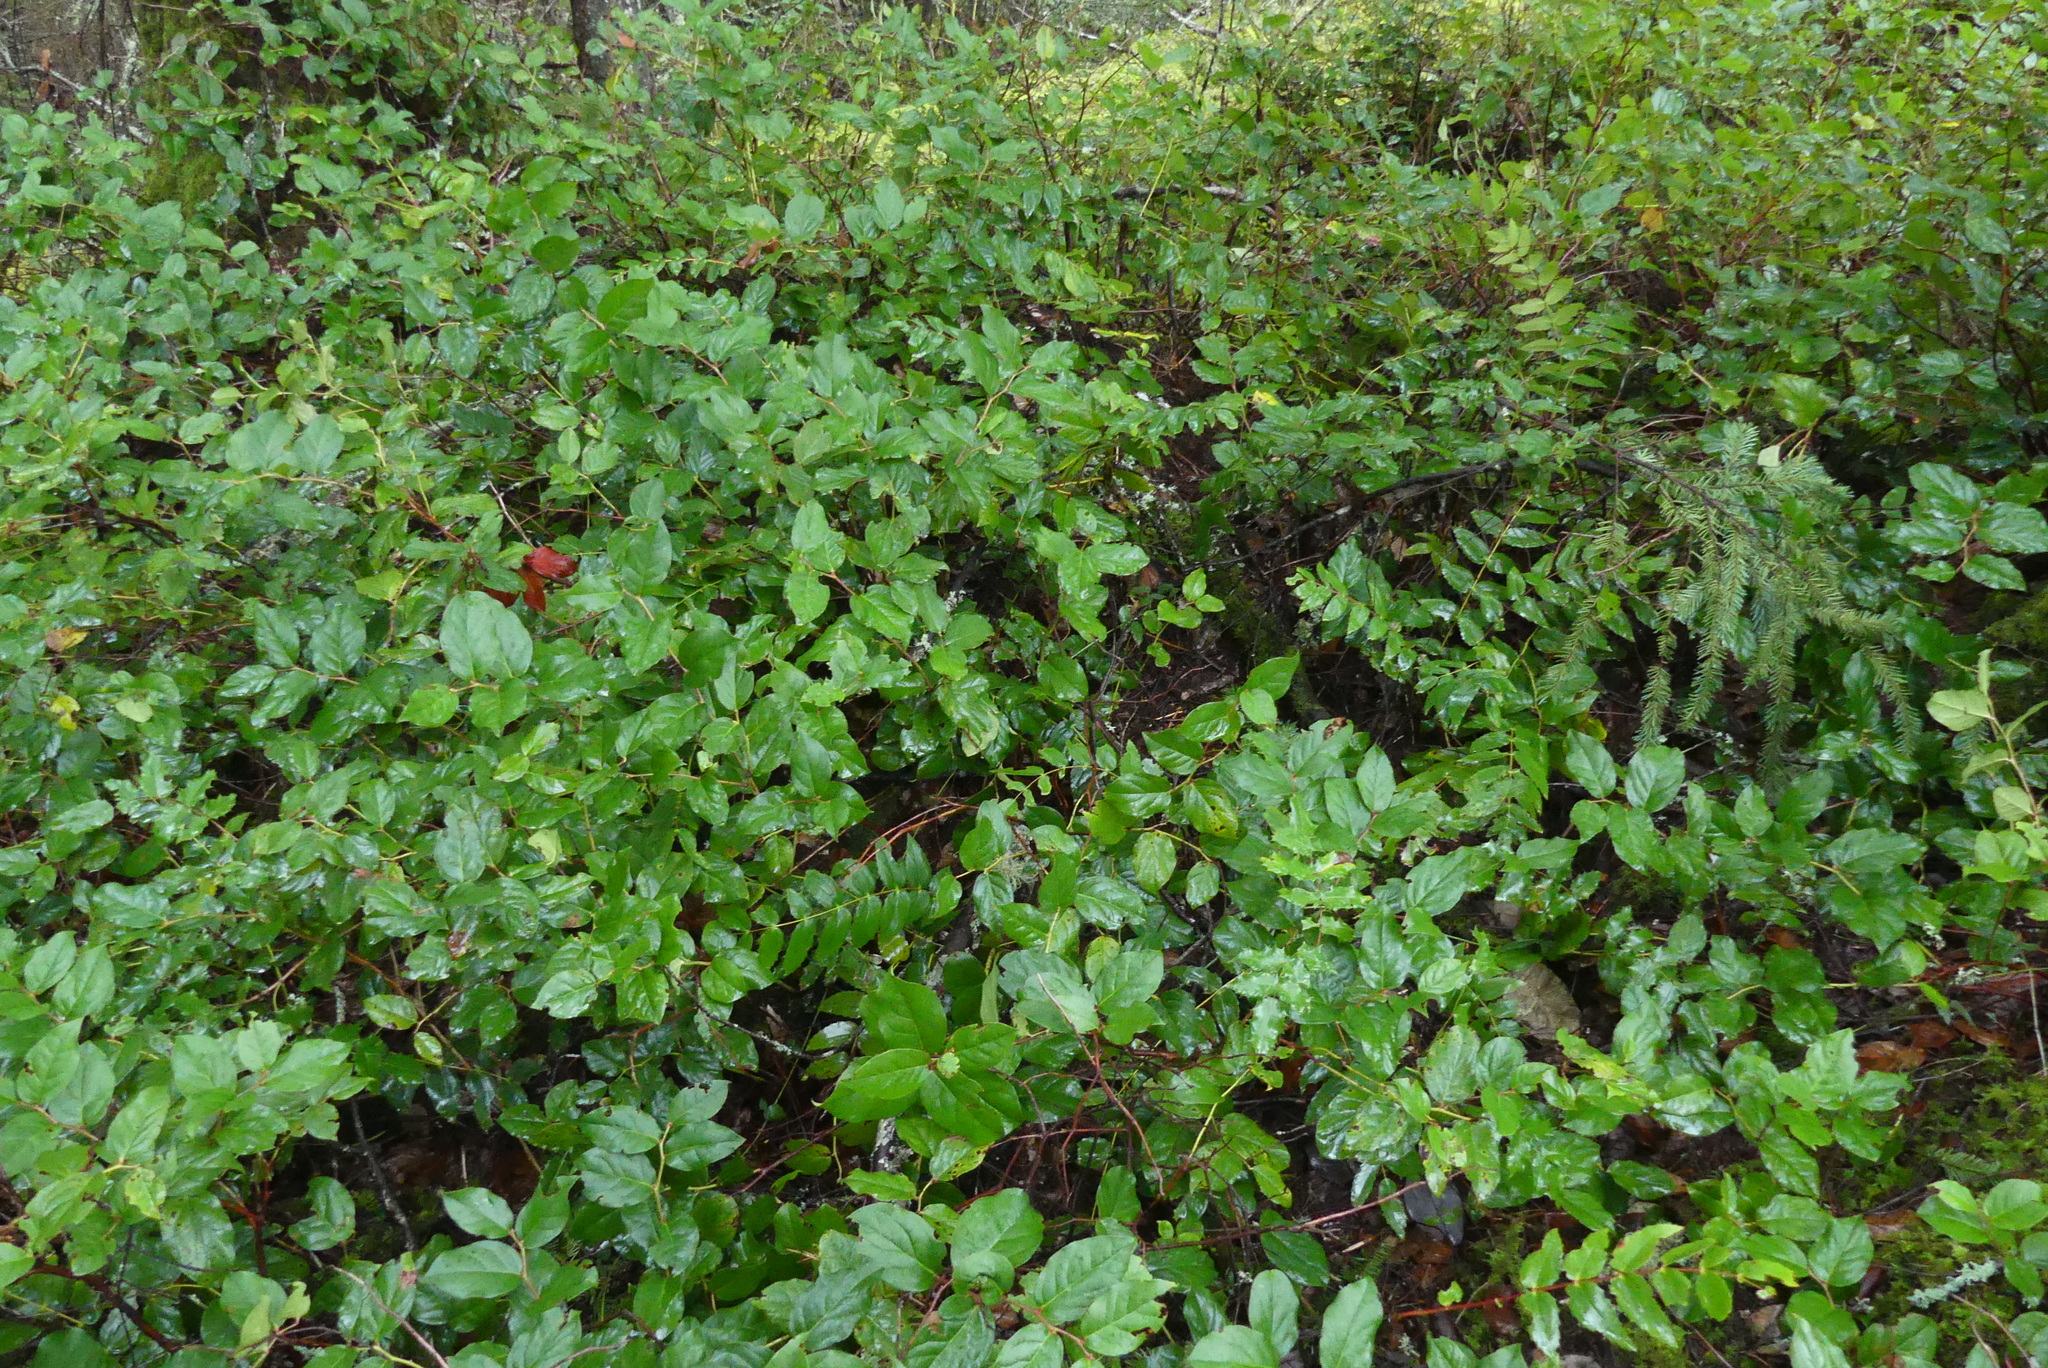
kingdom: Plantae
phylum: Tracheophyta
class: Magnoliopsida
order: Ericales
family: Ericaceae
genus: Gaultheria
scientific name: Gaultheria shallon
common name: Shallon
